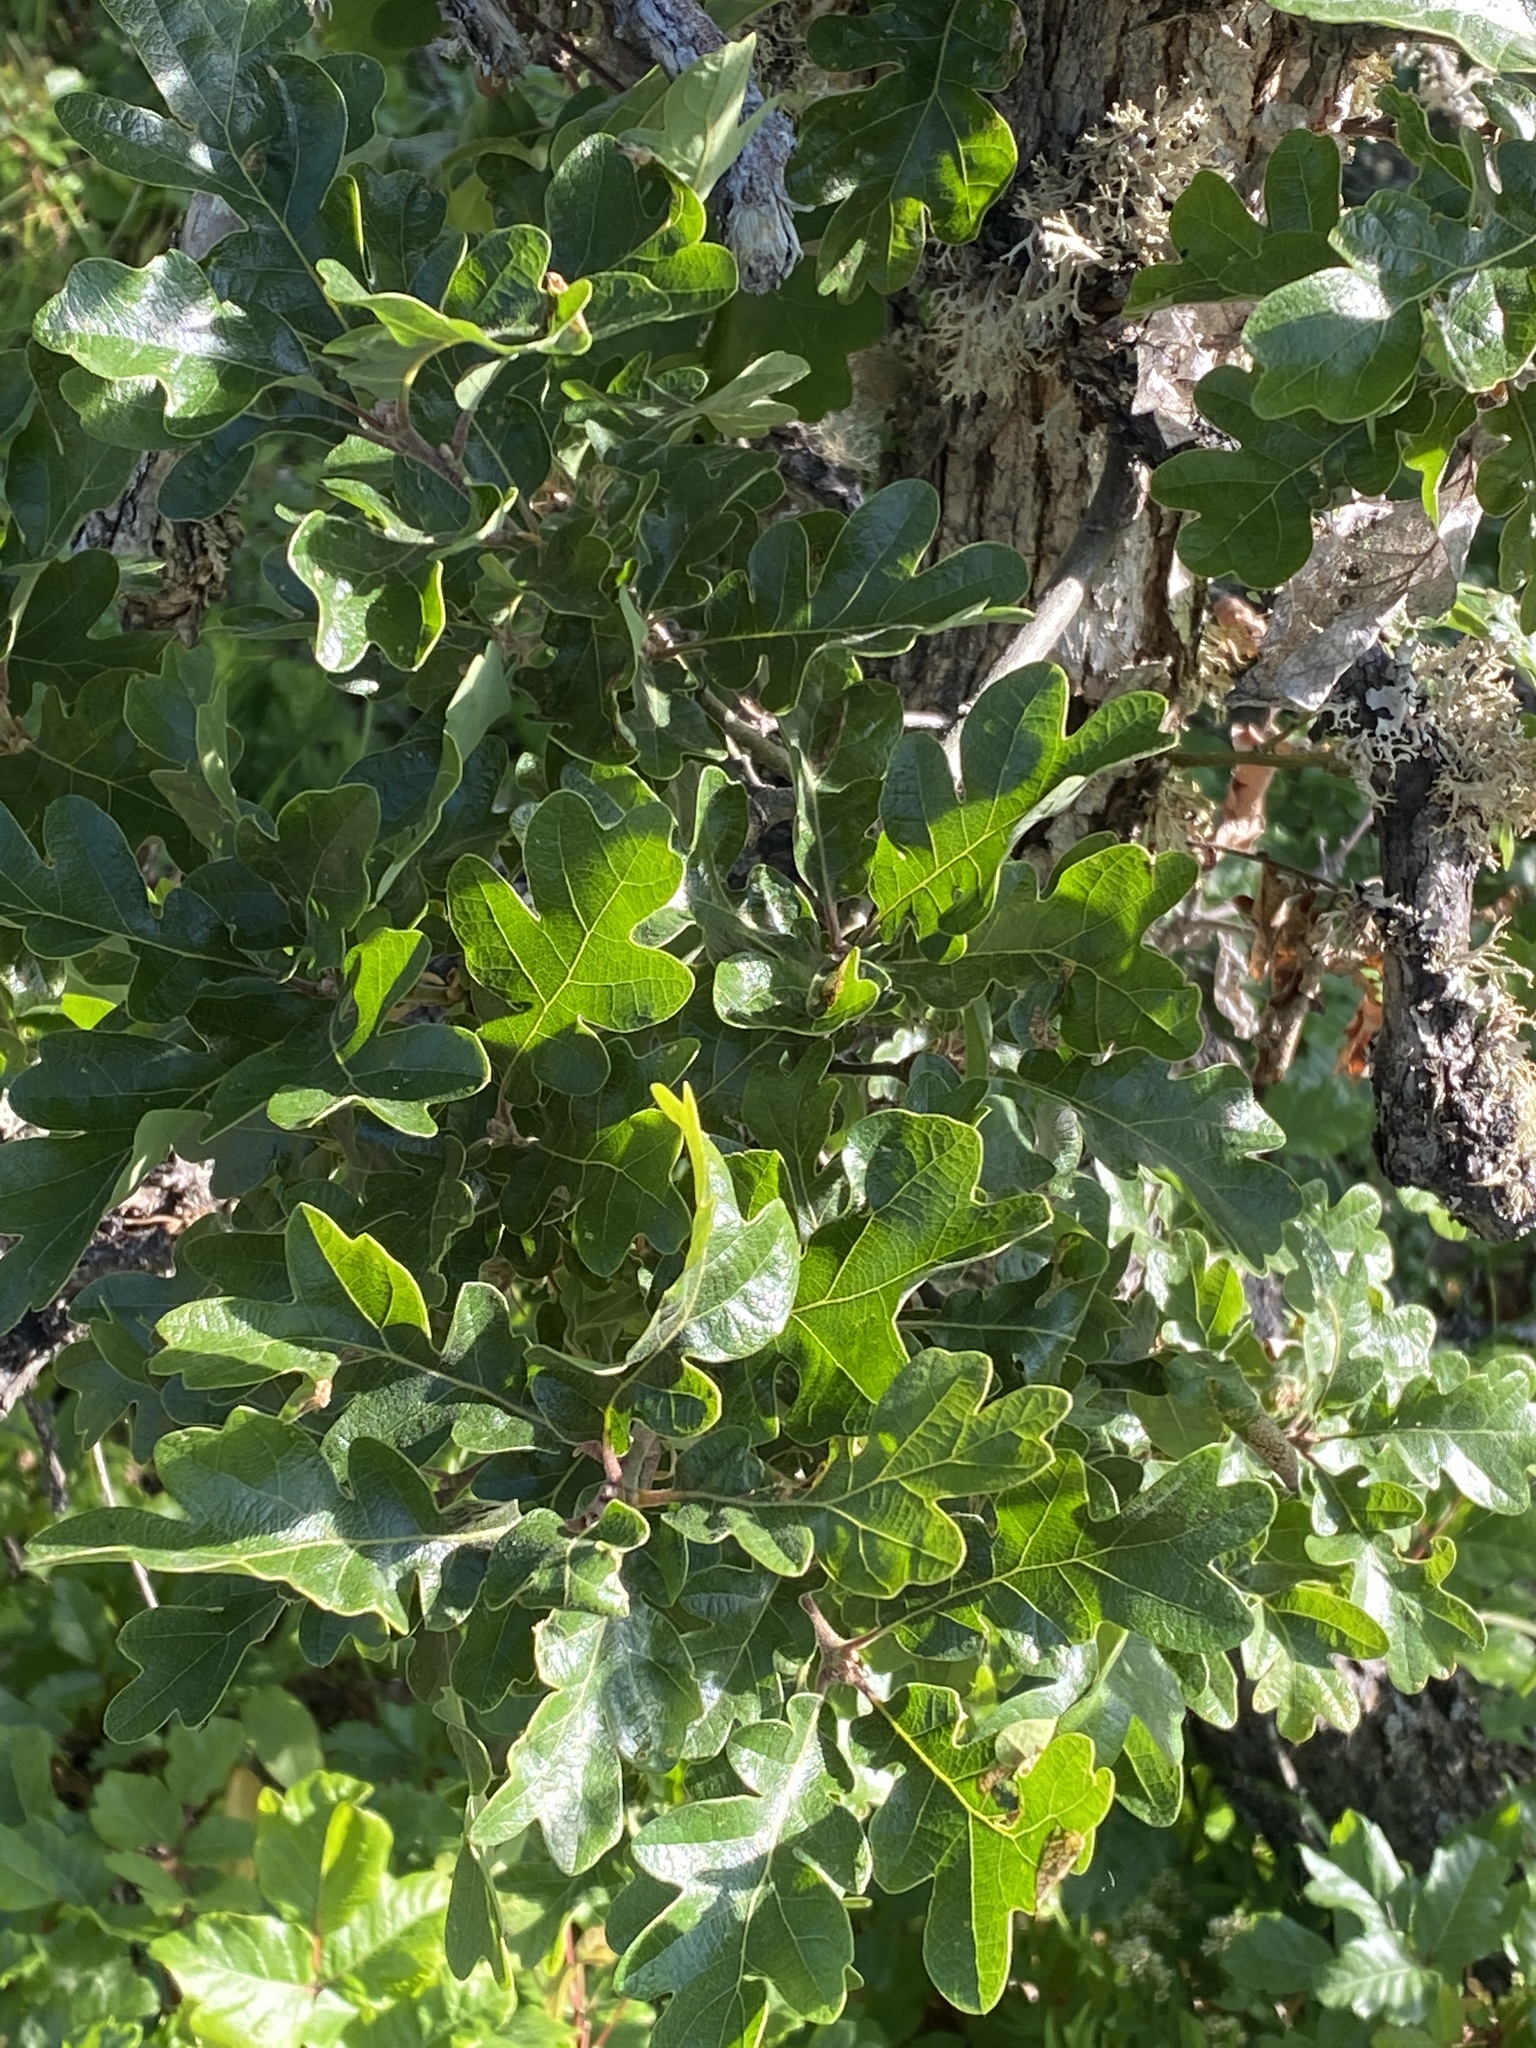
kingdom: Plantae
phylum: Tracheophyta
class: Magnoliopsida
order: Fagales
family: Fagaceae
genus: Quercus
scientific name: Quercus garryana
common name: Garry oak
